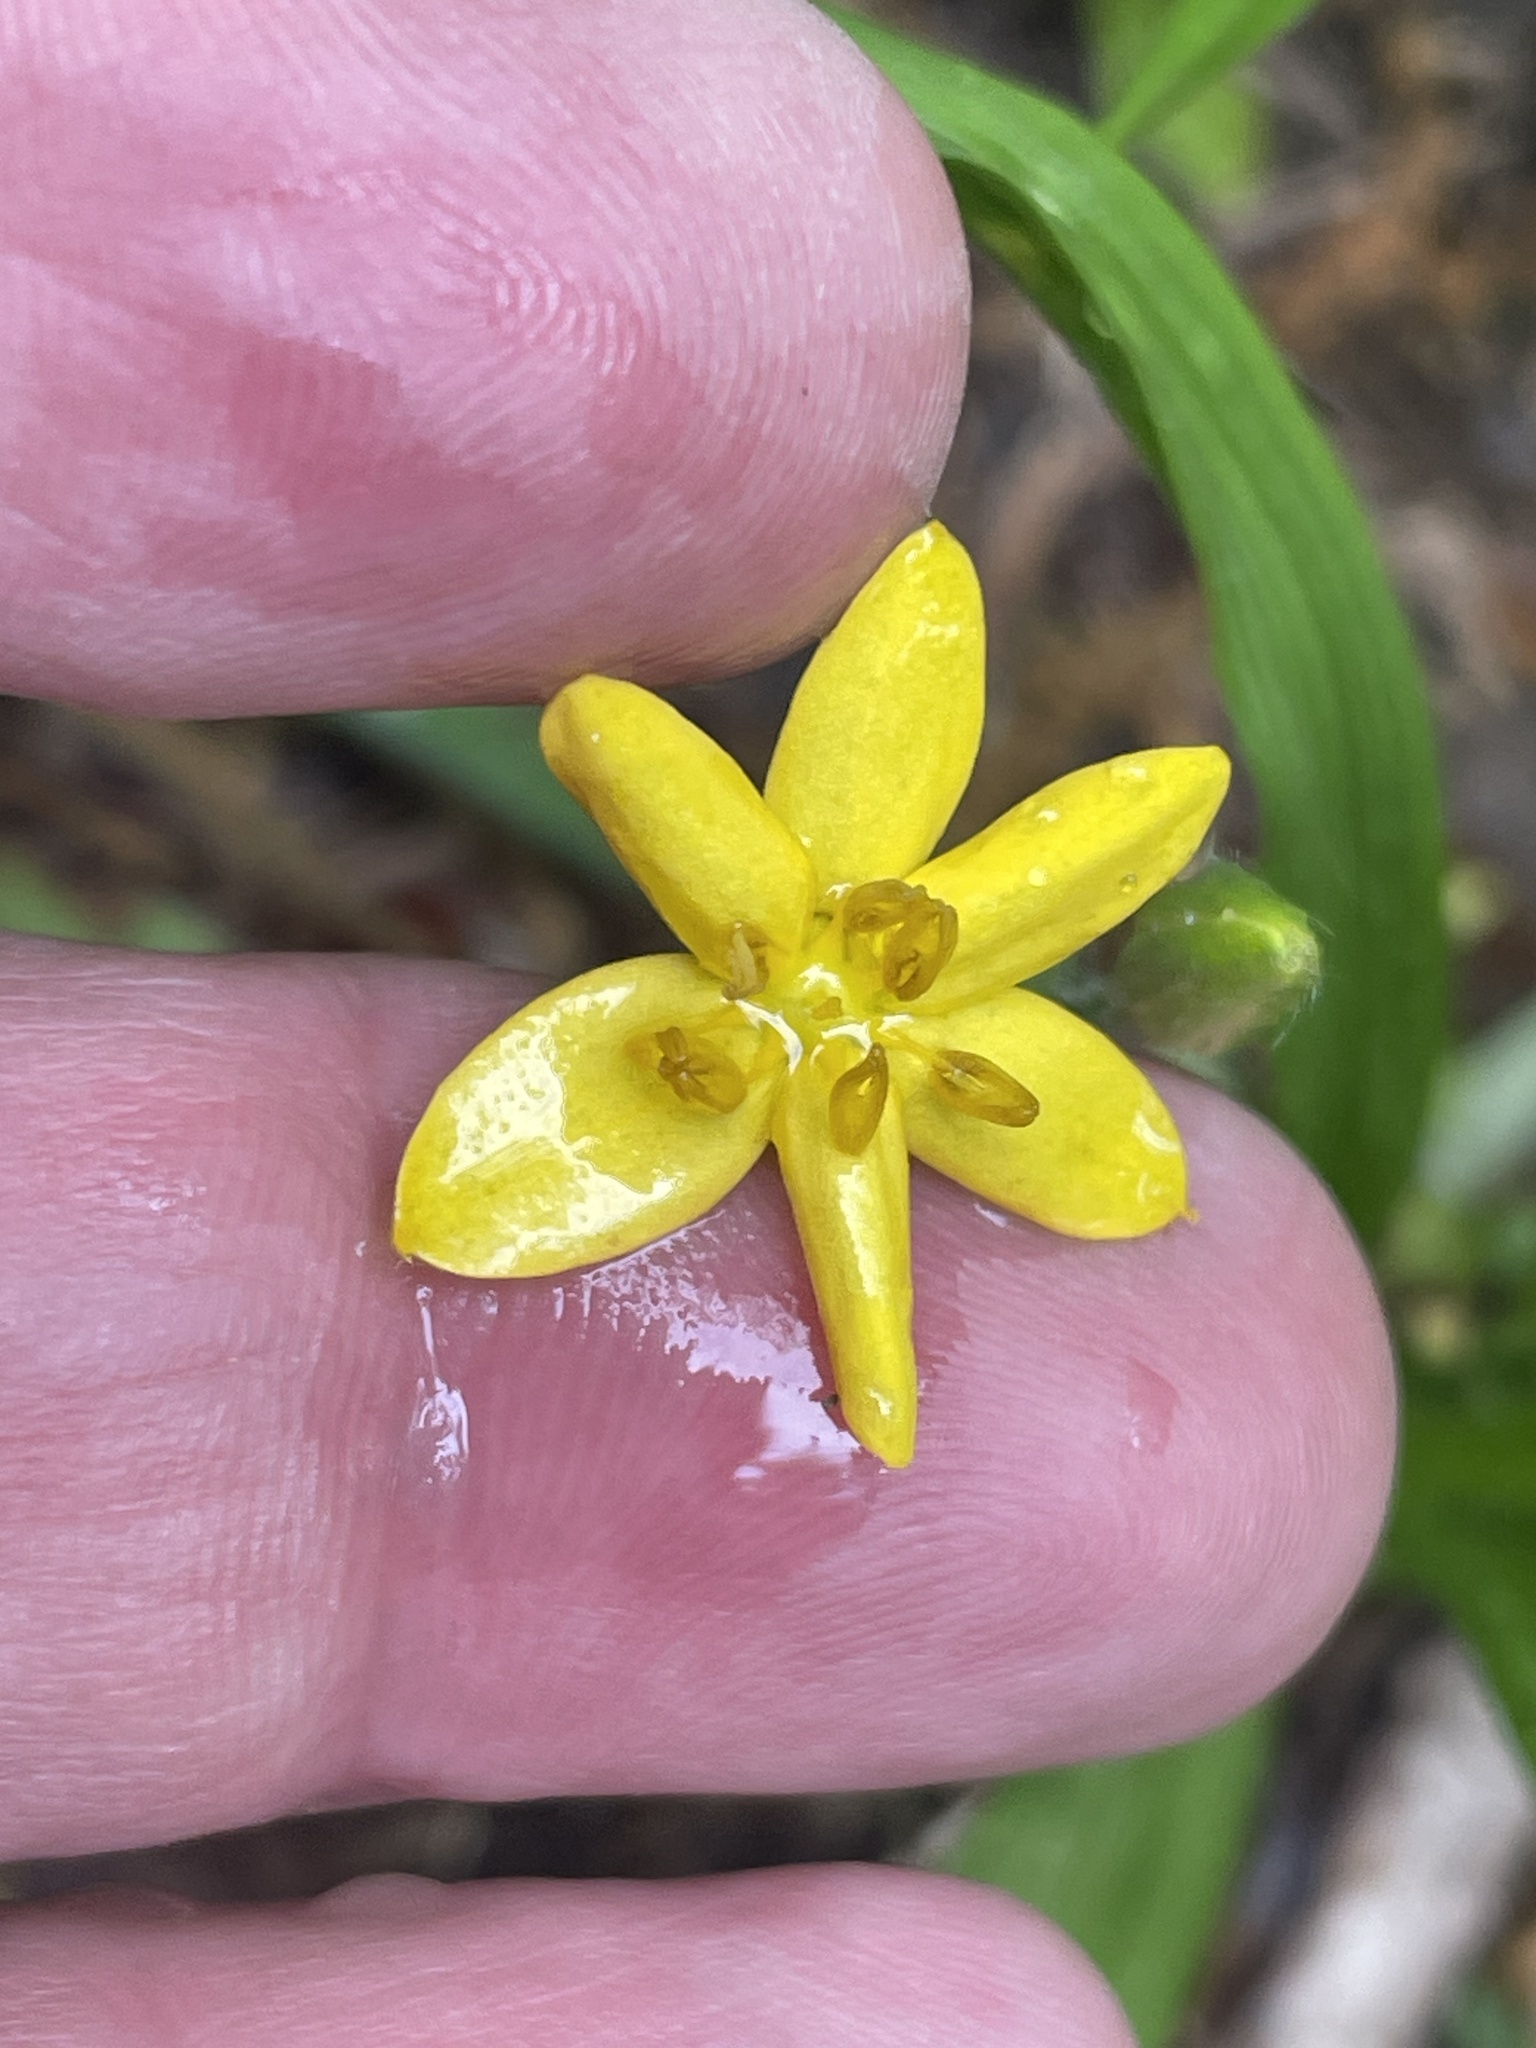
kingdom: Plantae
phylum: Tracheophyta
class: Liliopsida
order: Asparagales
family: Hypoxidaceae
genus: Hypoxis
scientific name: Hypoxis hirsuta
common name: Common goldstar
